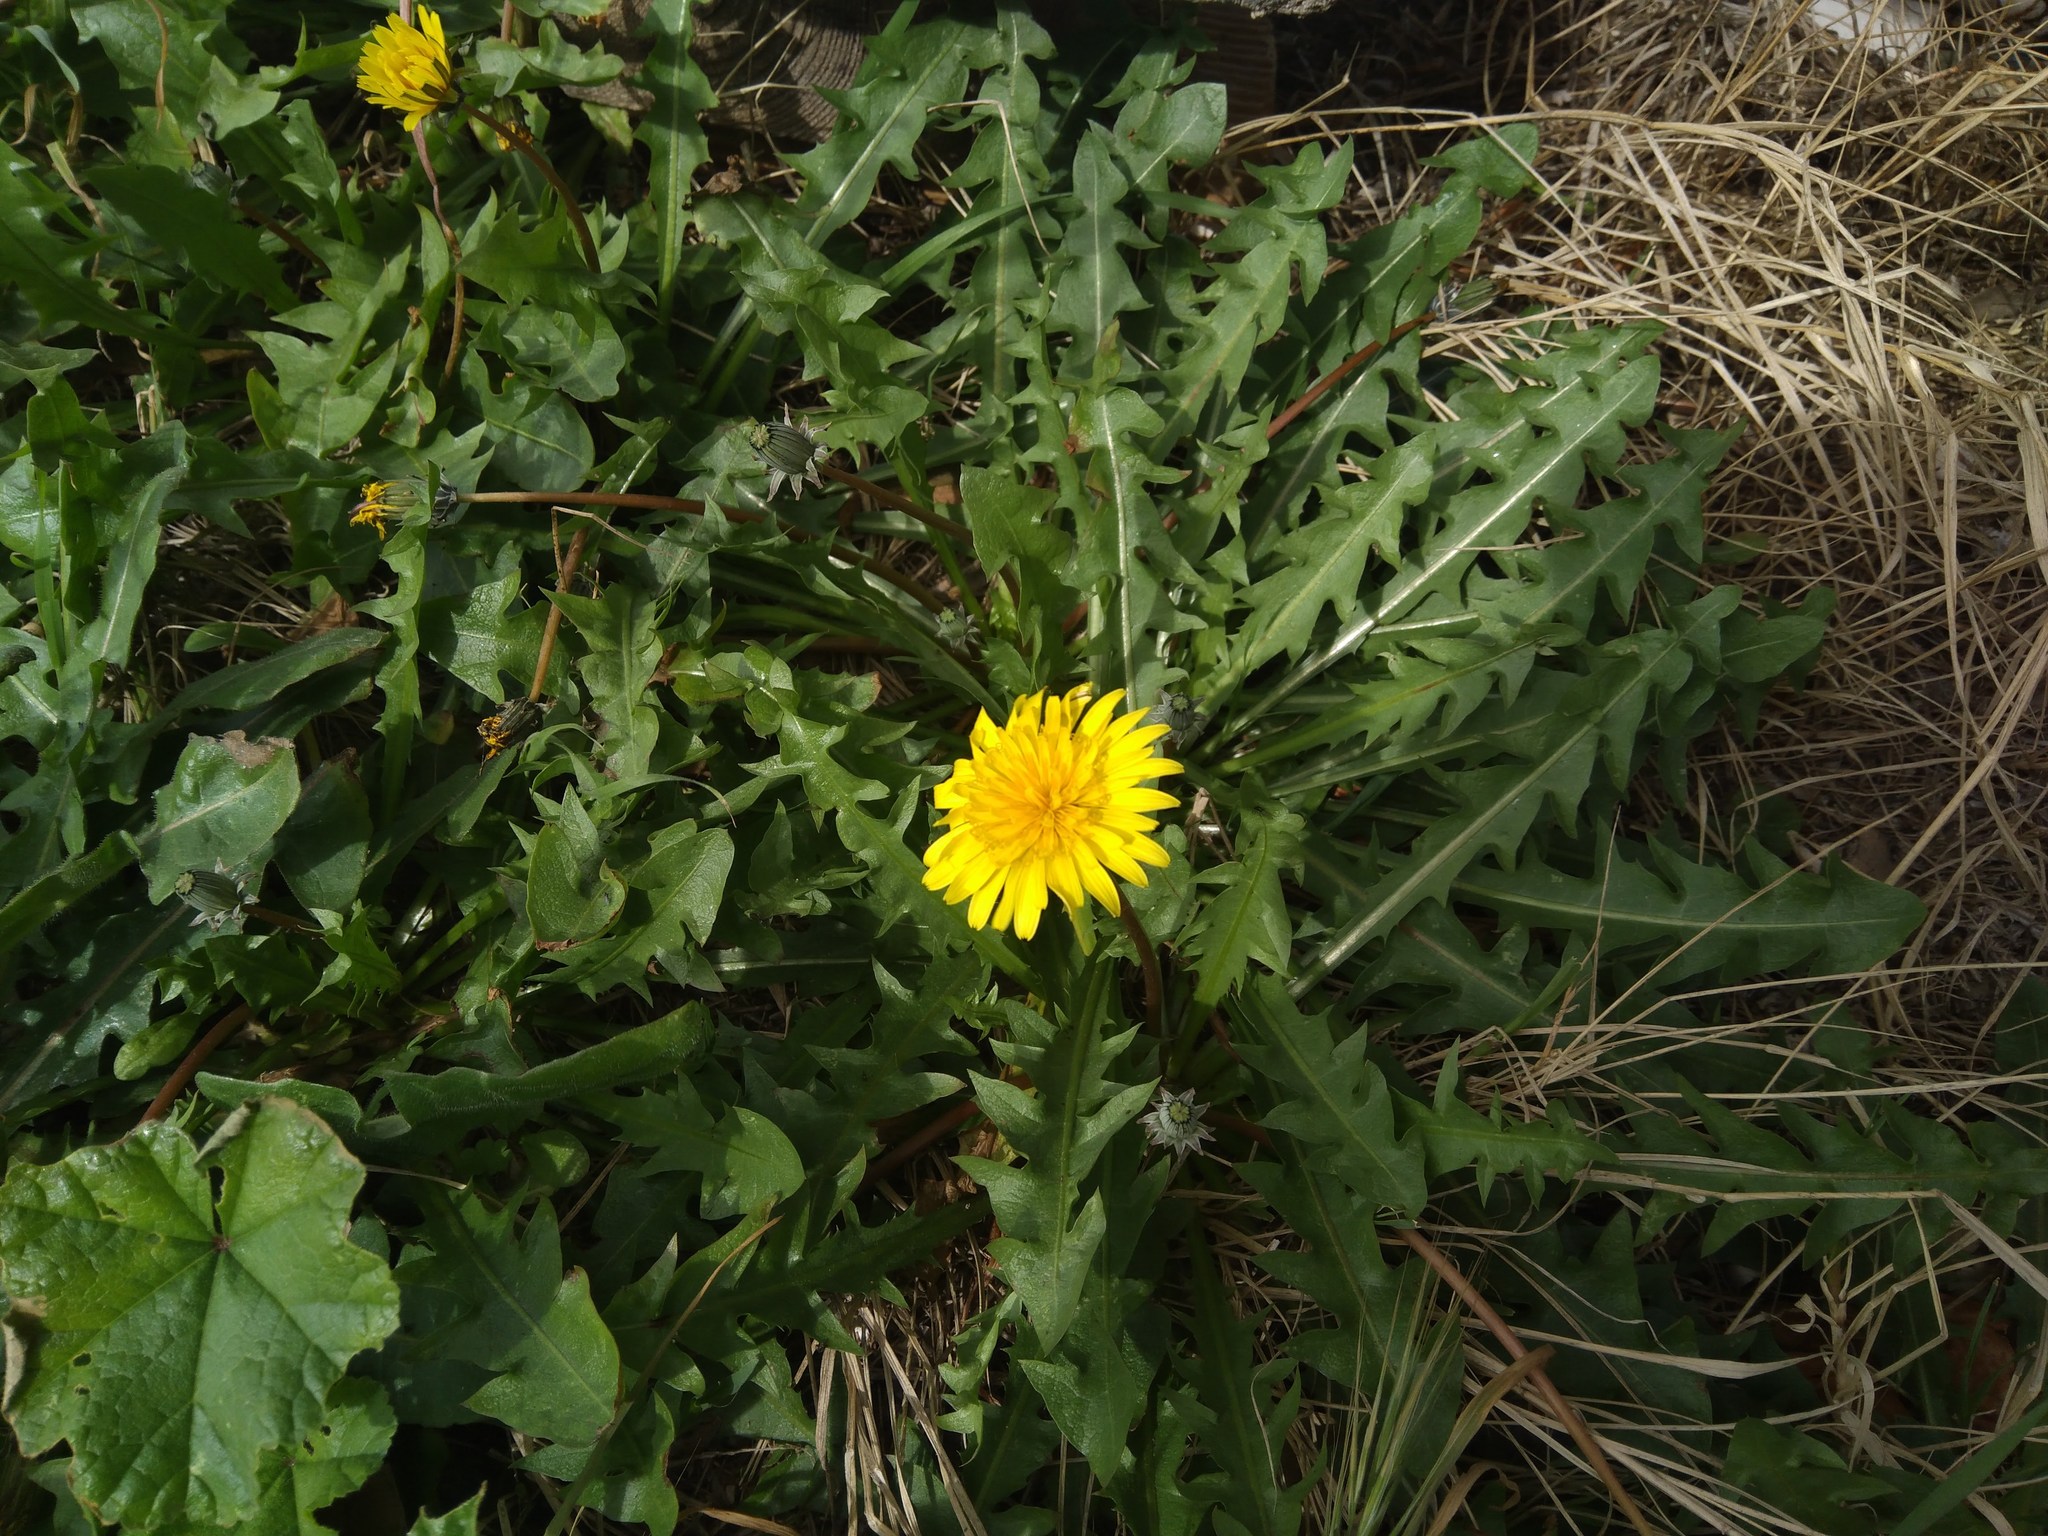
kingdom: Plantae
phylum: Tracheophyta
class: Magnoliopsida
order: Asterales
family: Asteraceae
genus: Taraxacum
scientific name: Taraxacum officinale
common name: Common dandelion
